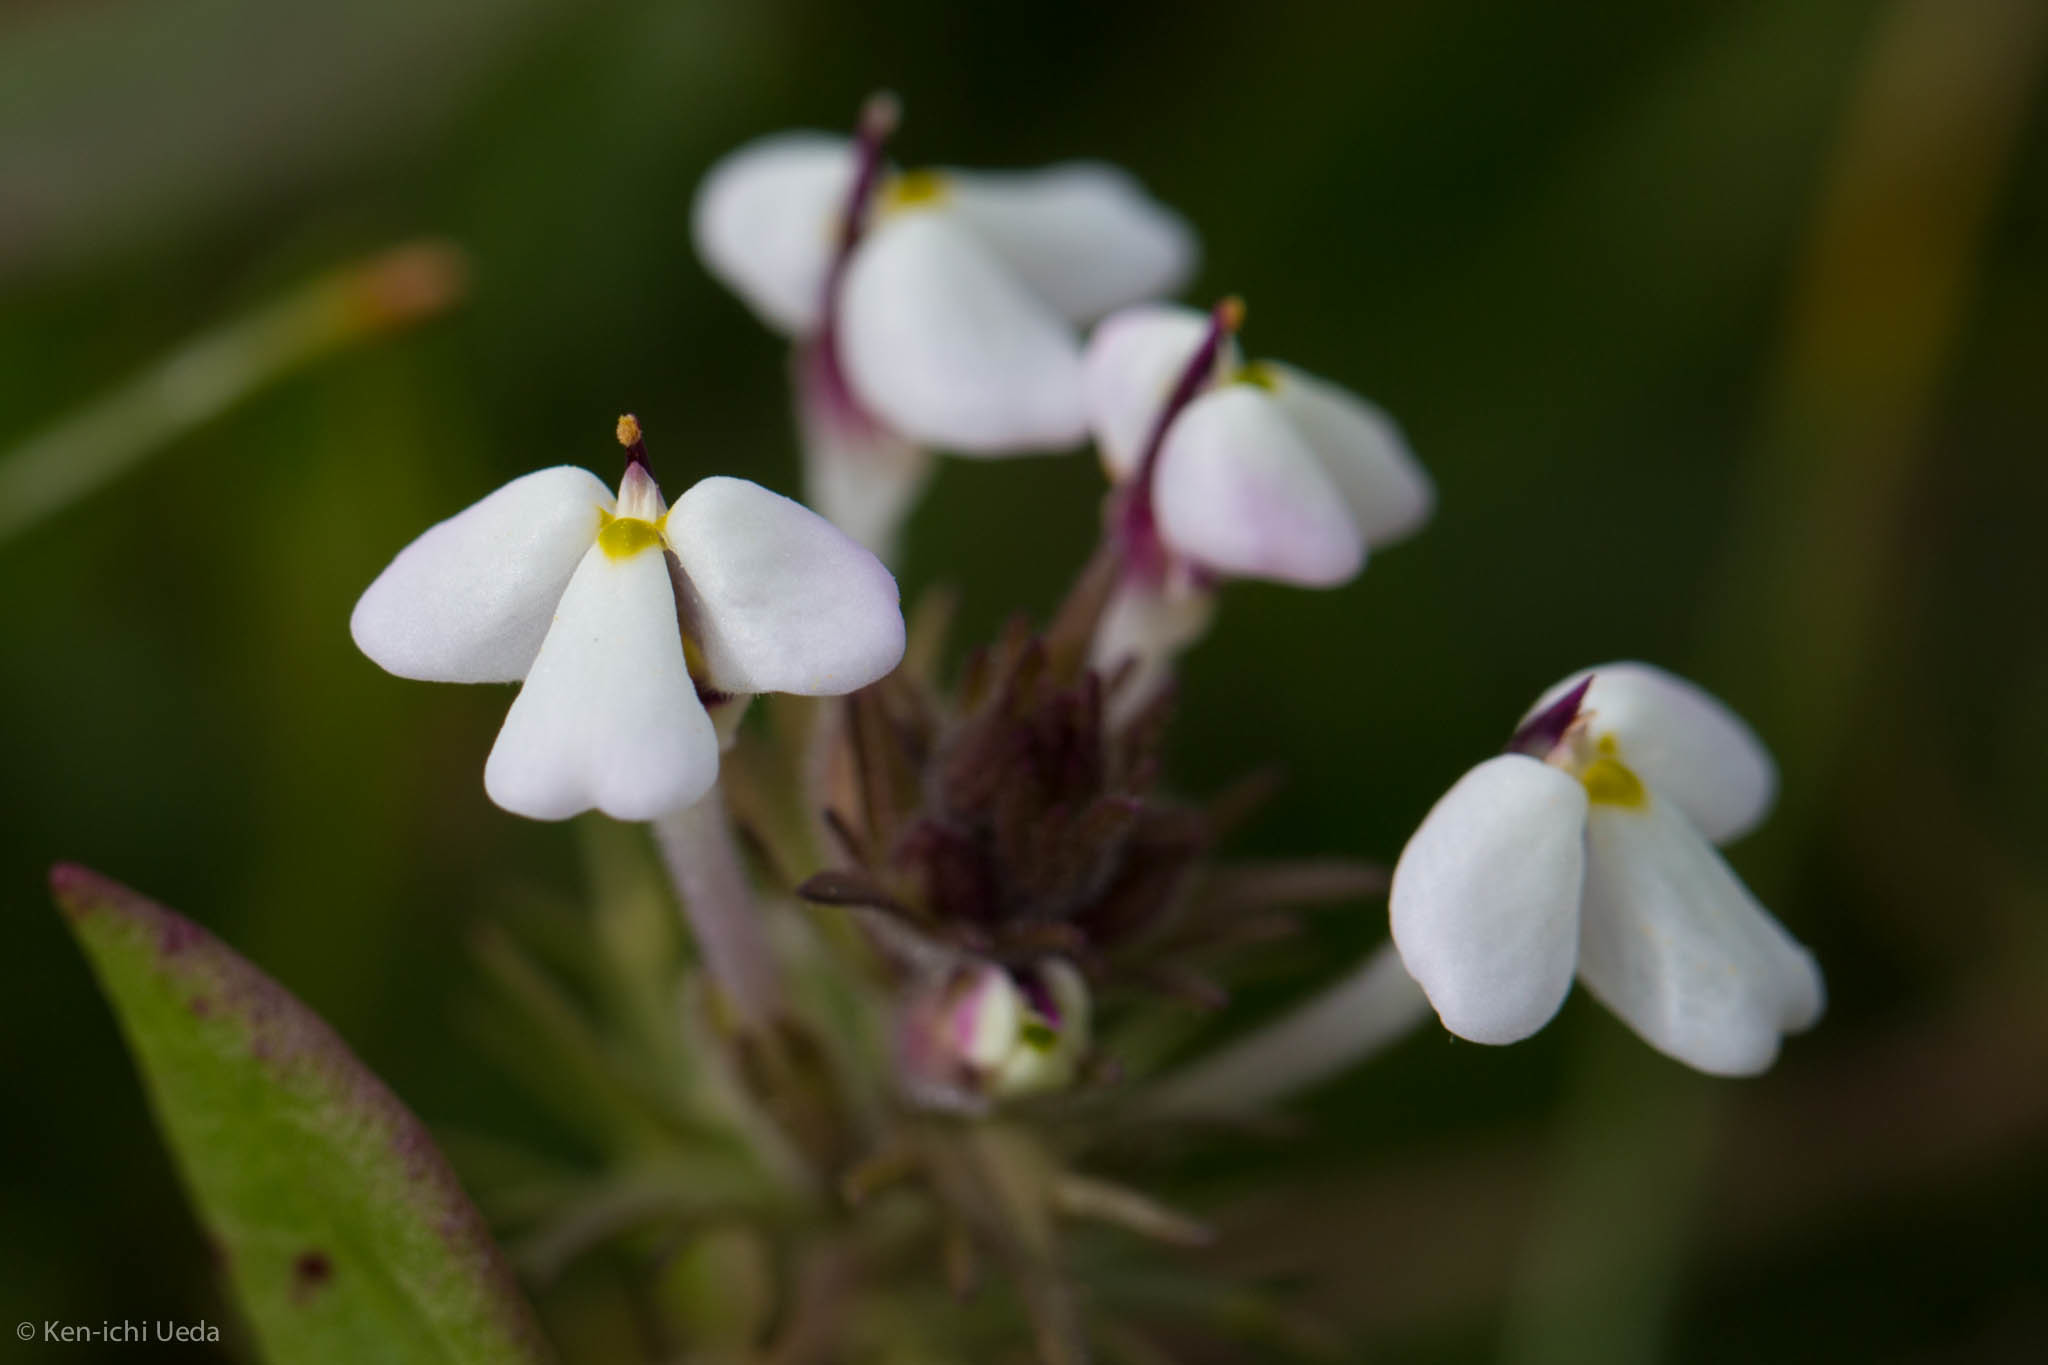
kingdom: Plantae
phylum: Tracheophyta
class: Magnoliopsida
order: Lamiales
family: Orobanchaceae
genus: Triphysaria
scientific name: Triphysaria eriantha
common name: Johnny-tuck
